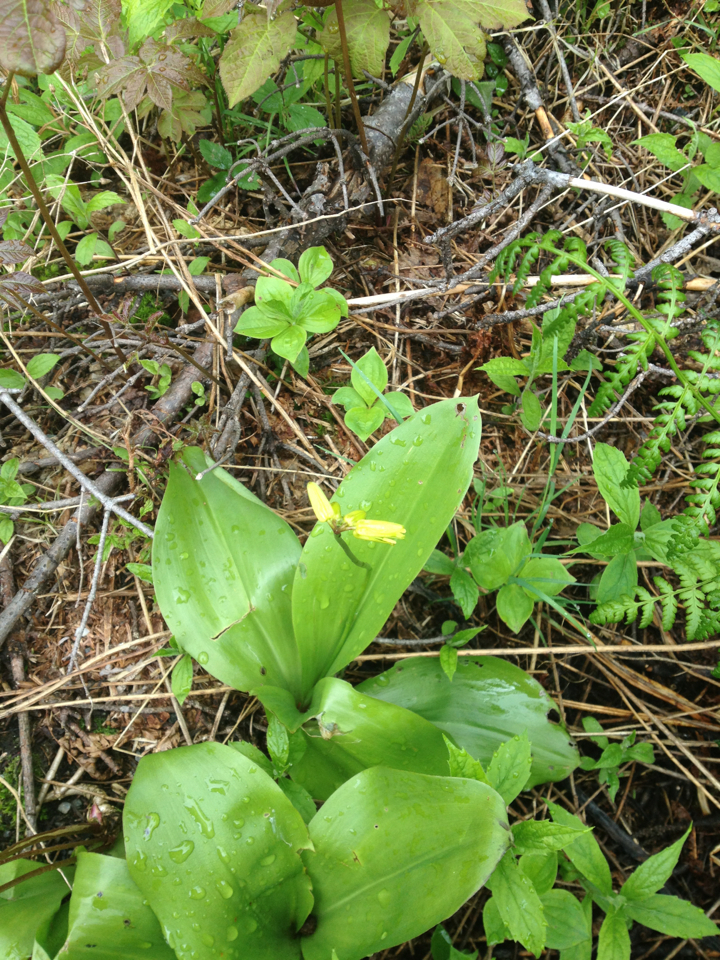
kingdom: Plantae
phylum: Tracheophyta
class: Liliopsida
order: Liliales
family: Liliaceae
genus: Clintonia
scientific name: Clintonia borealis
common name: Yellow clintonia
